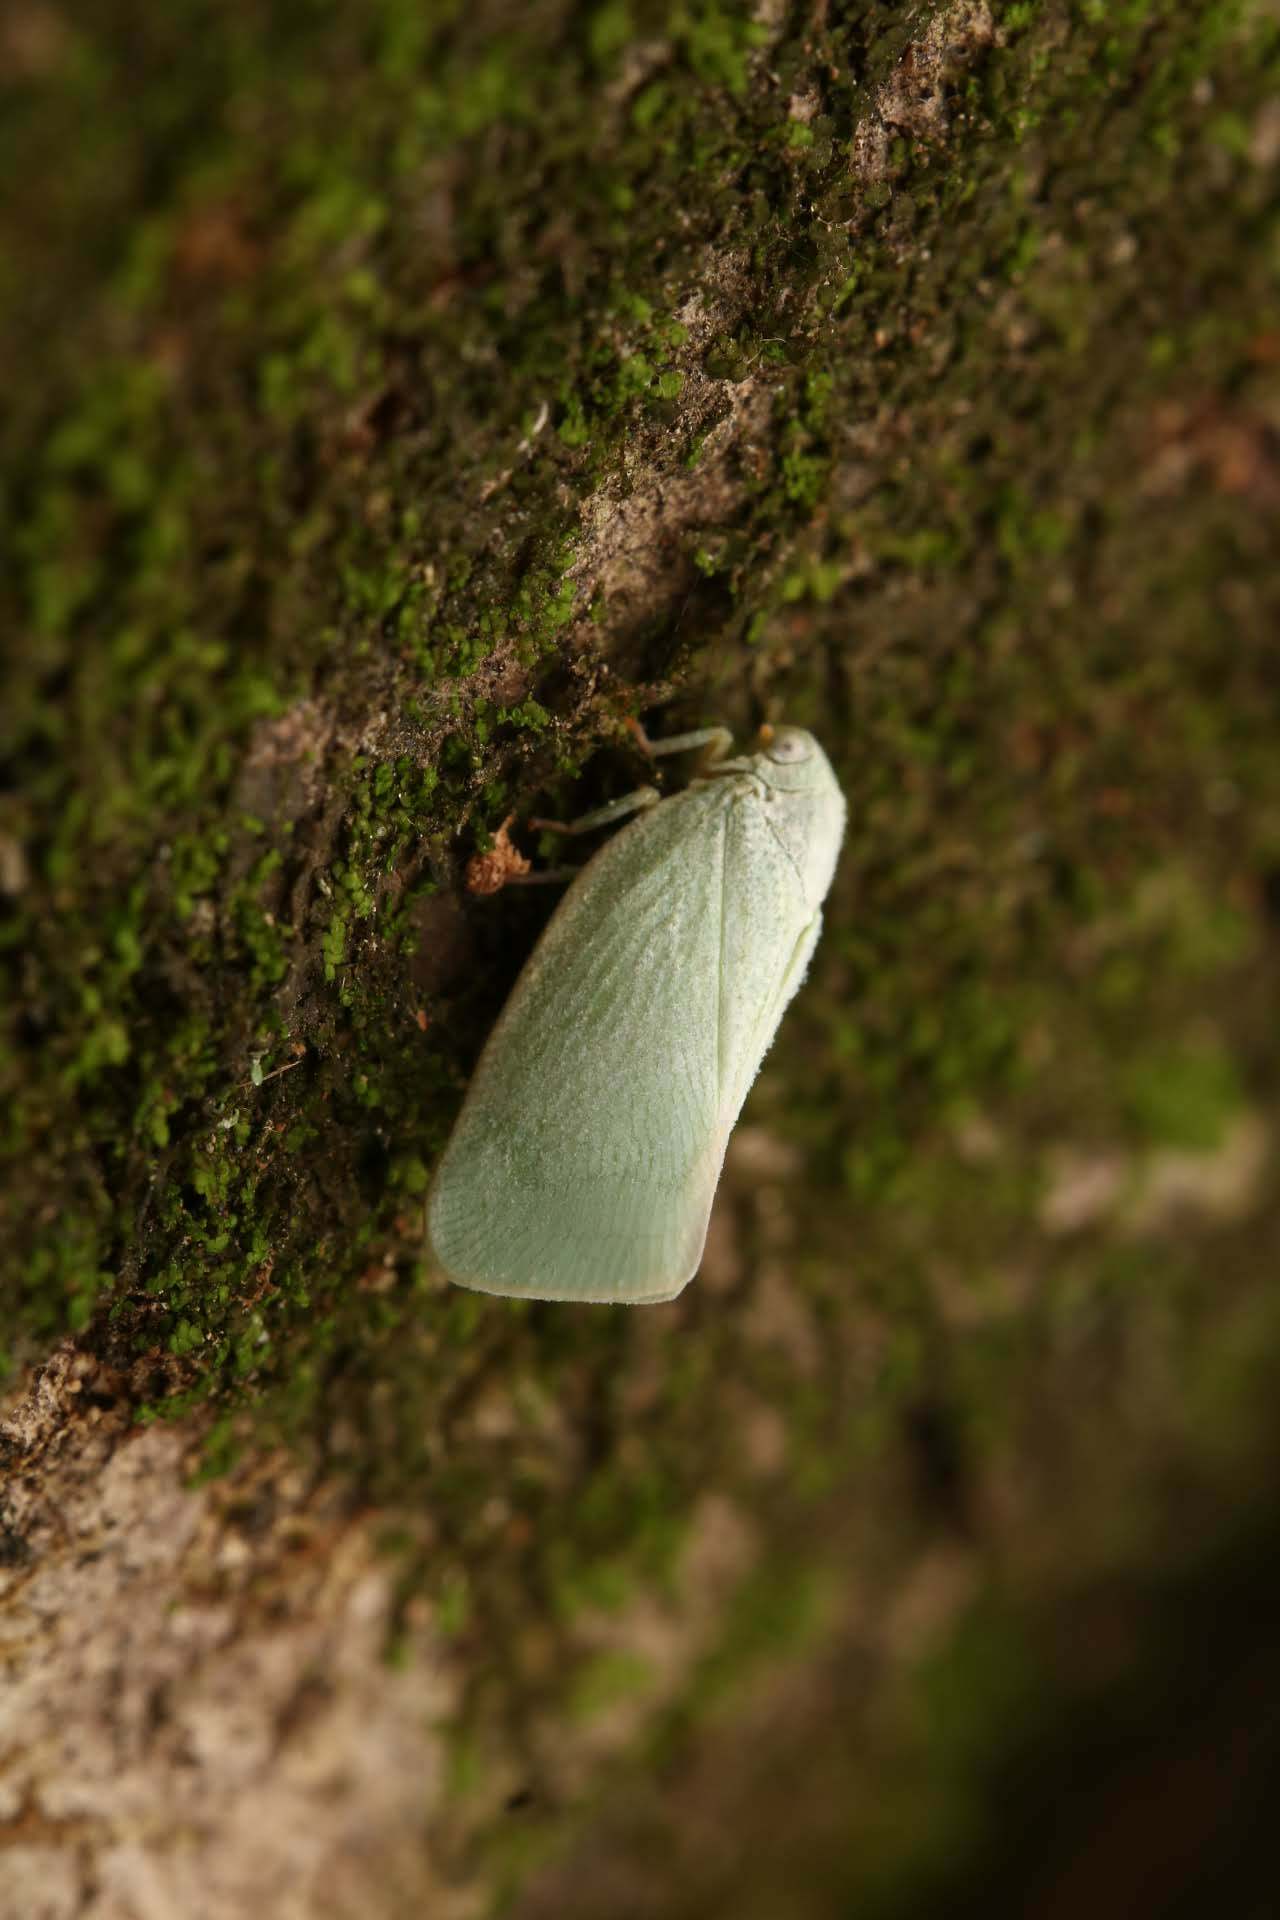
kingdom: Animalia
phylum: Arthropoda
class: Insecta
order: Hemiptera
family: Flatidae
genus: Flatormenis
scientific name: Flatormenis proxima
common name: Northern flatid planthopper
